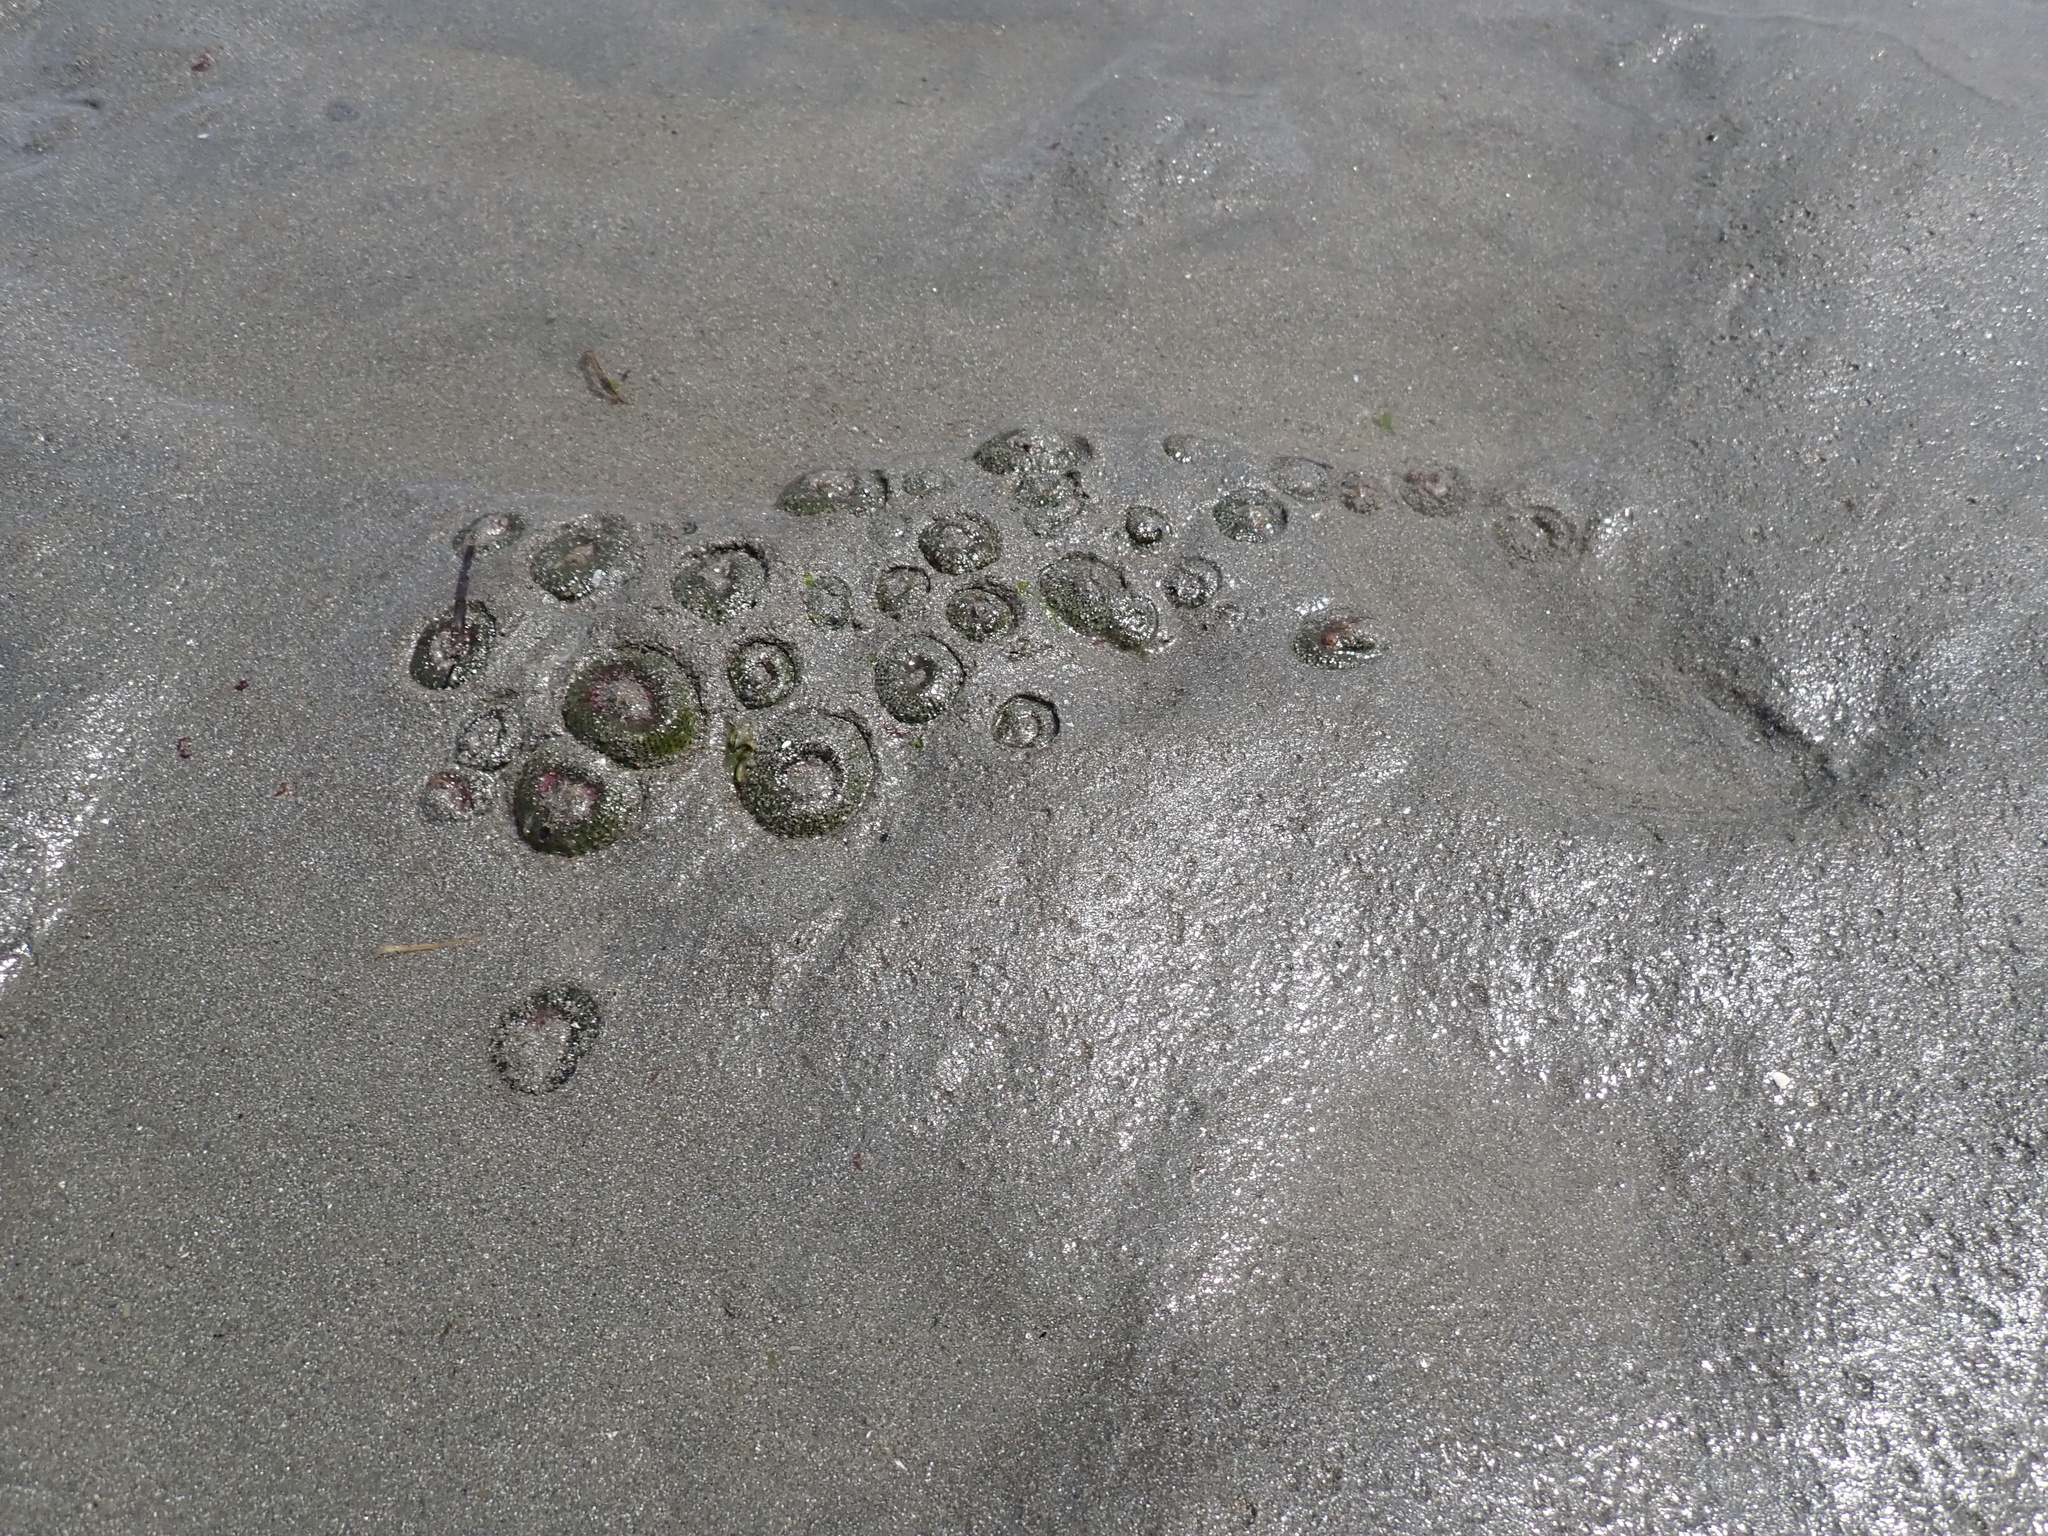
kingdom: Animalia
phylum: Cnidaria
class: Anthozoa
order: Actiniaria
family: Actiniidae
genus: Anthopleura
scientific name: Anthopleura elegantissima
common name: Clonal anemone
